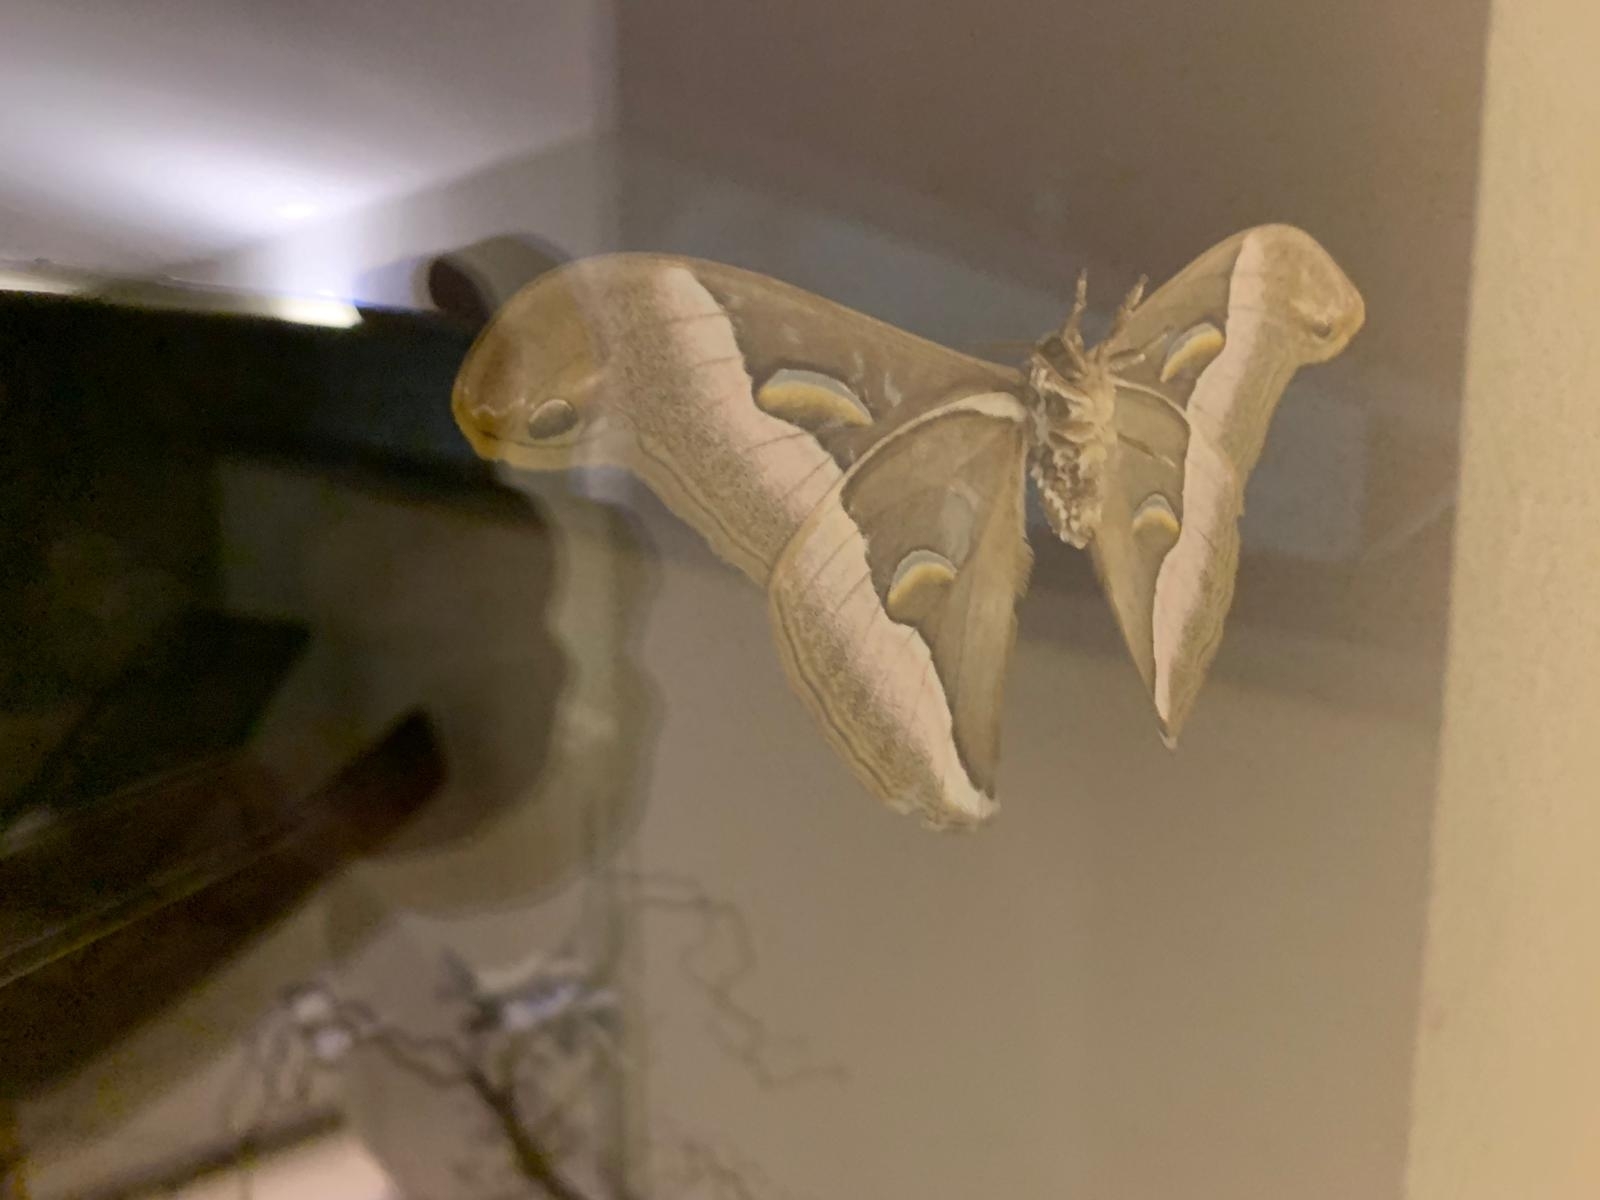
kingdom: Animalia
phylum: Arthropoda
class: Insecta
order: Lepidoptera
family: Saturniidae
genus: Samia
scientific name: Samia cynthia
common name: Ailanthus silkmoth
